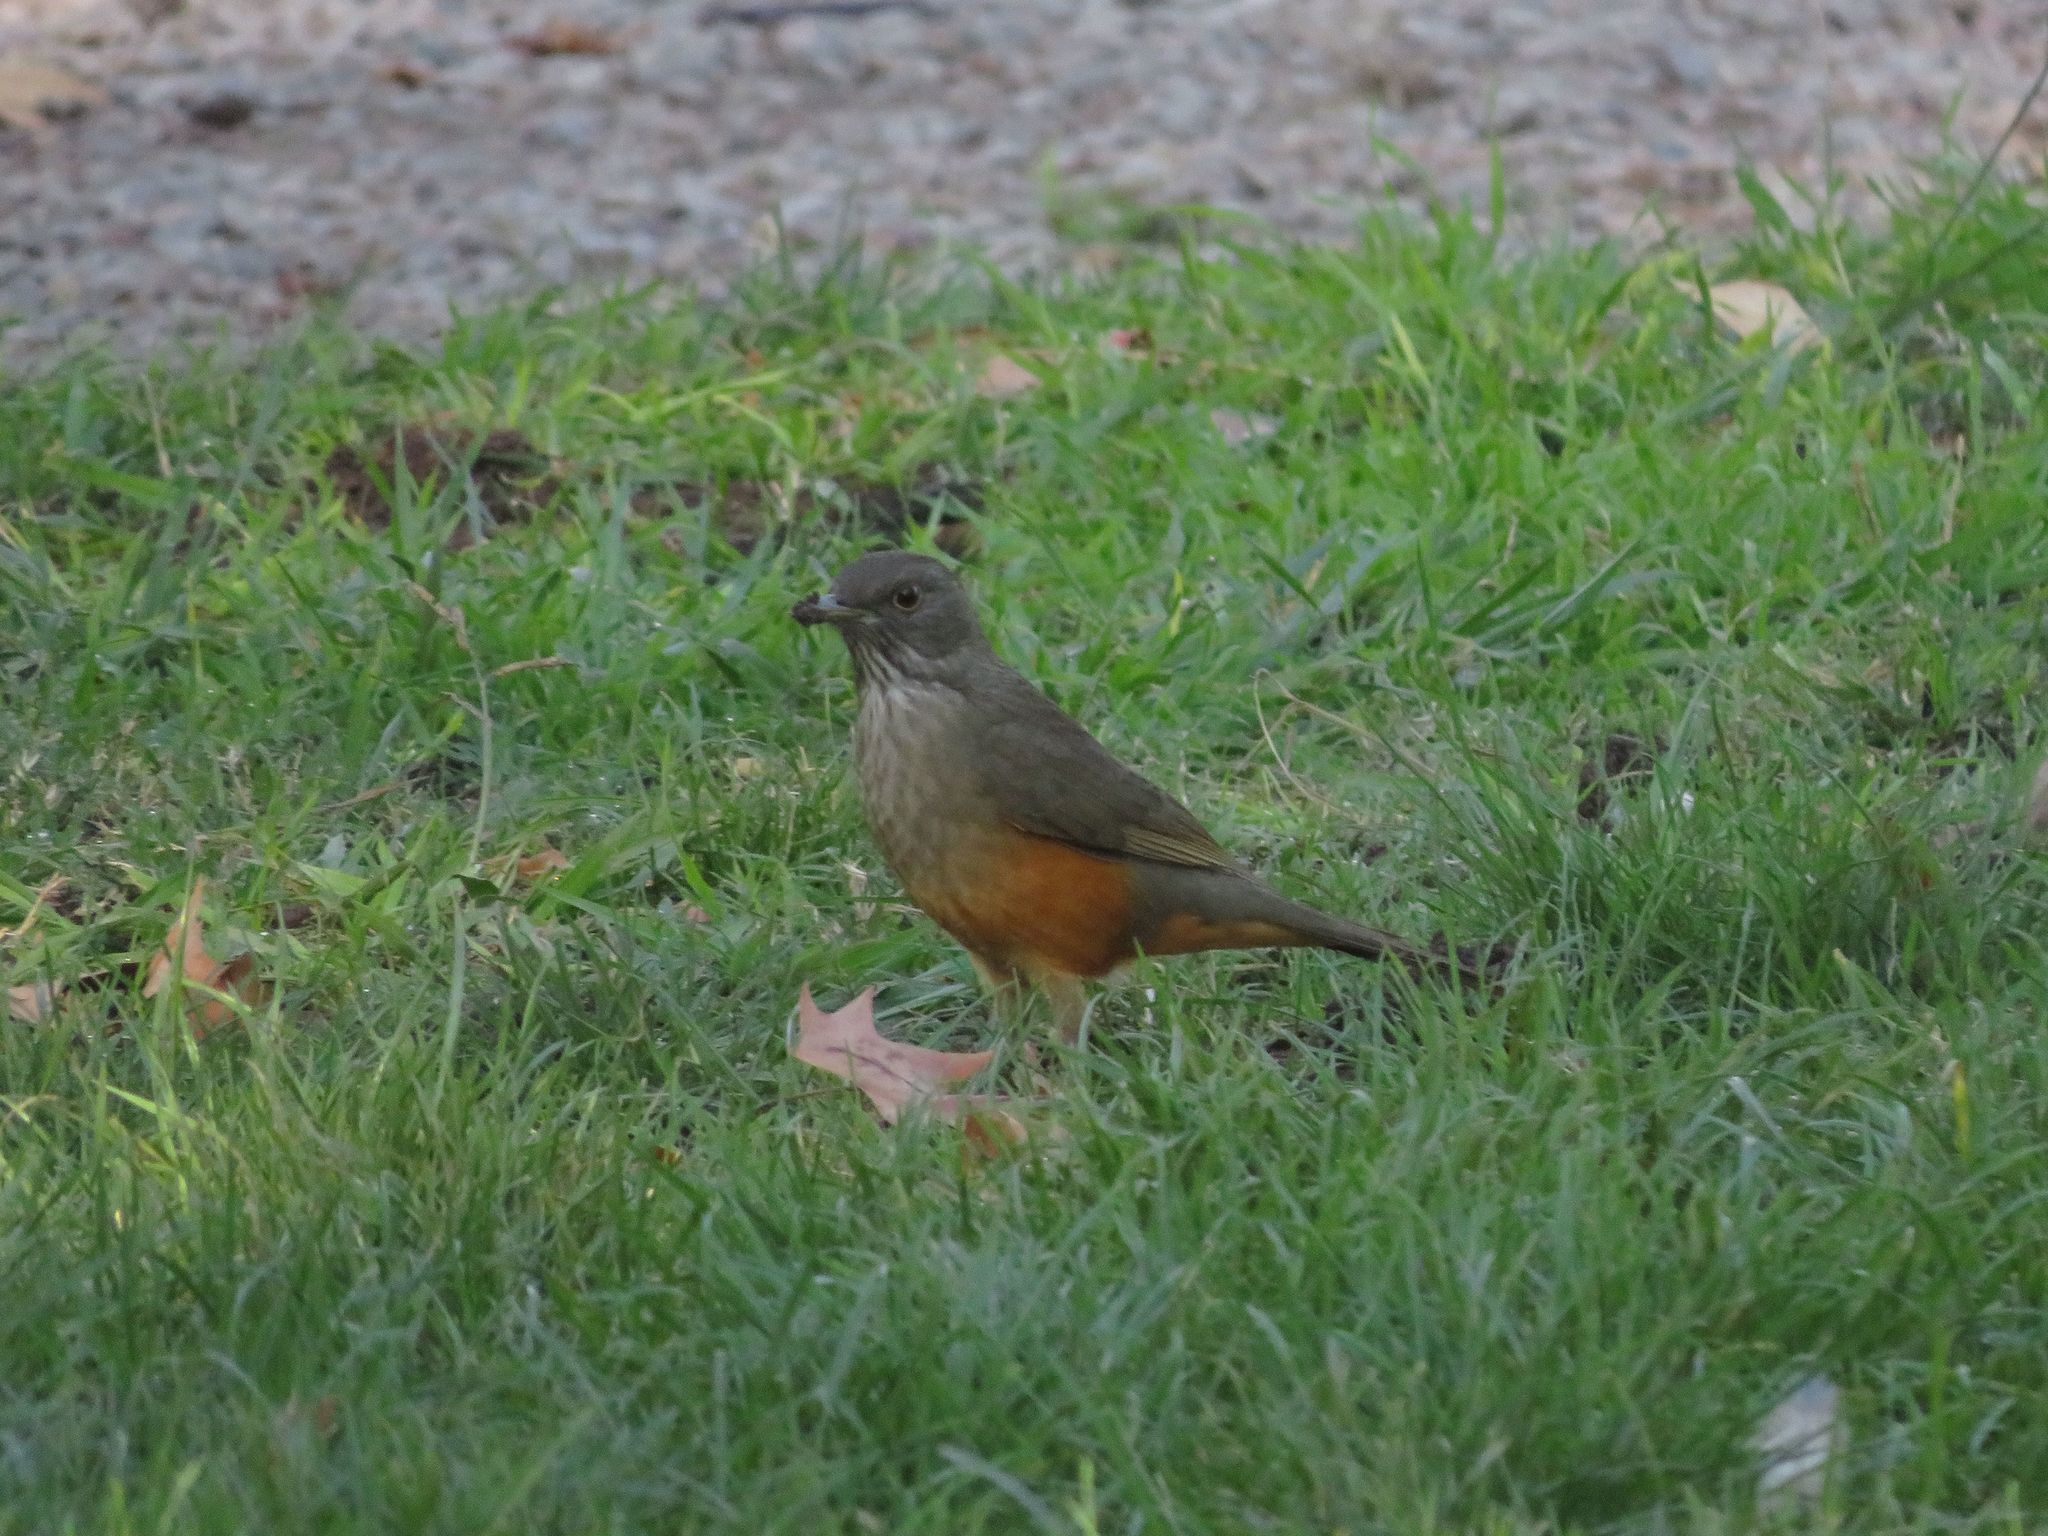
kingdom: Animalia
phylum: Chordata
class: Aves
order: Passeriformes
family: Turdidae
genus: Turdus
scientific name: Turdus rufiventris
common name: Rufous-bellied thrush
